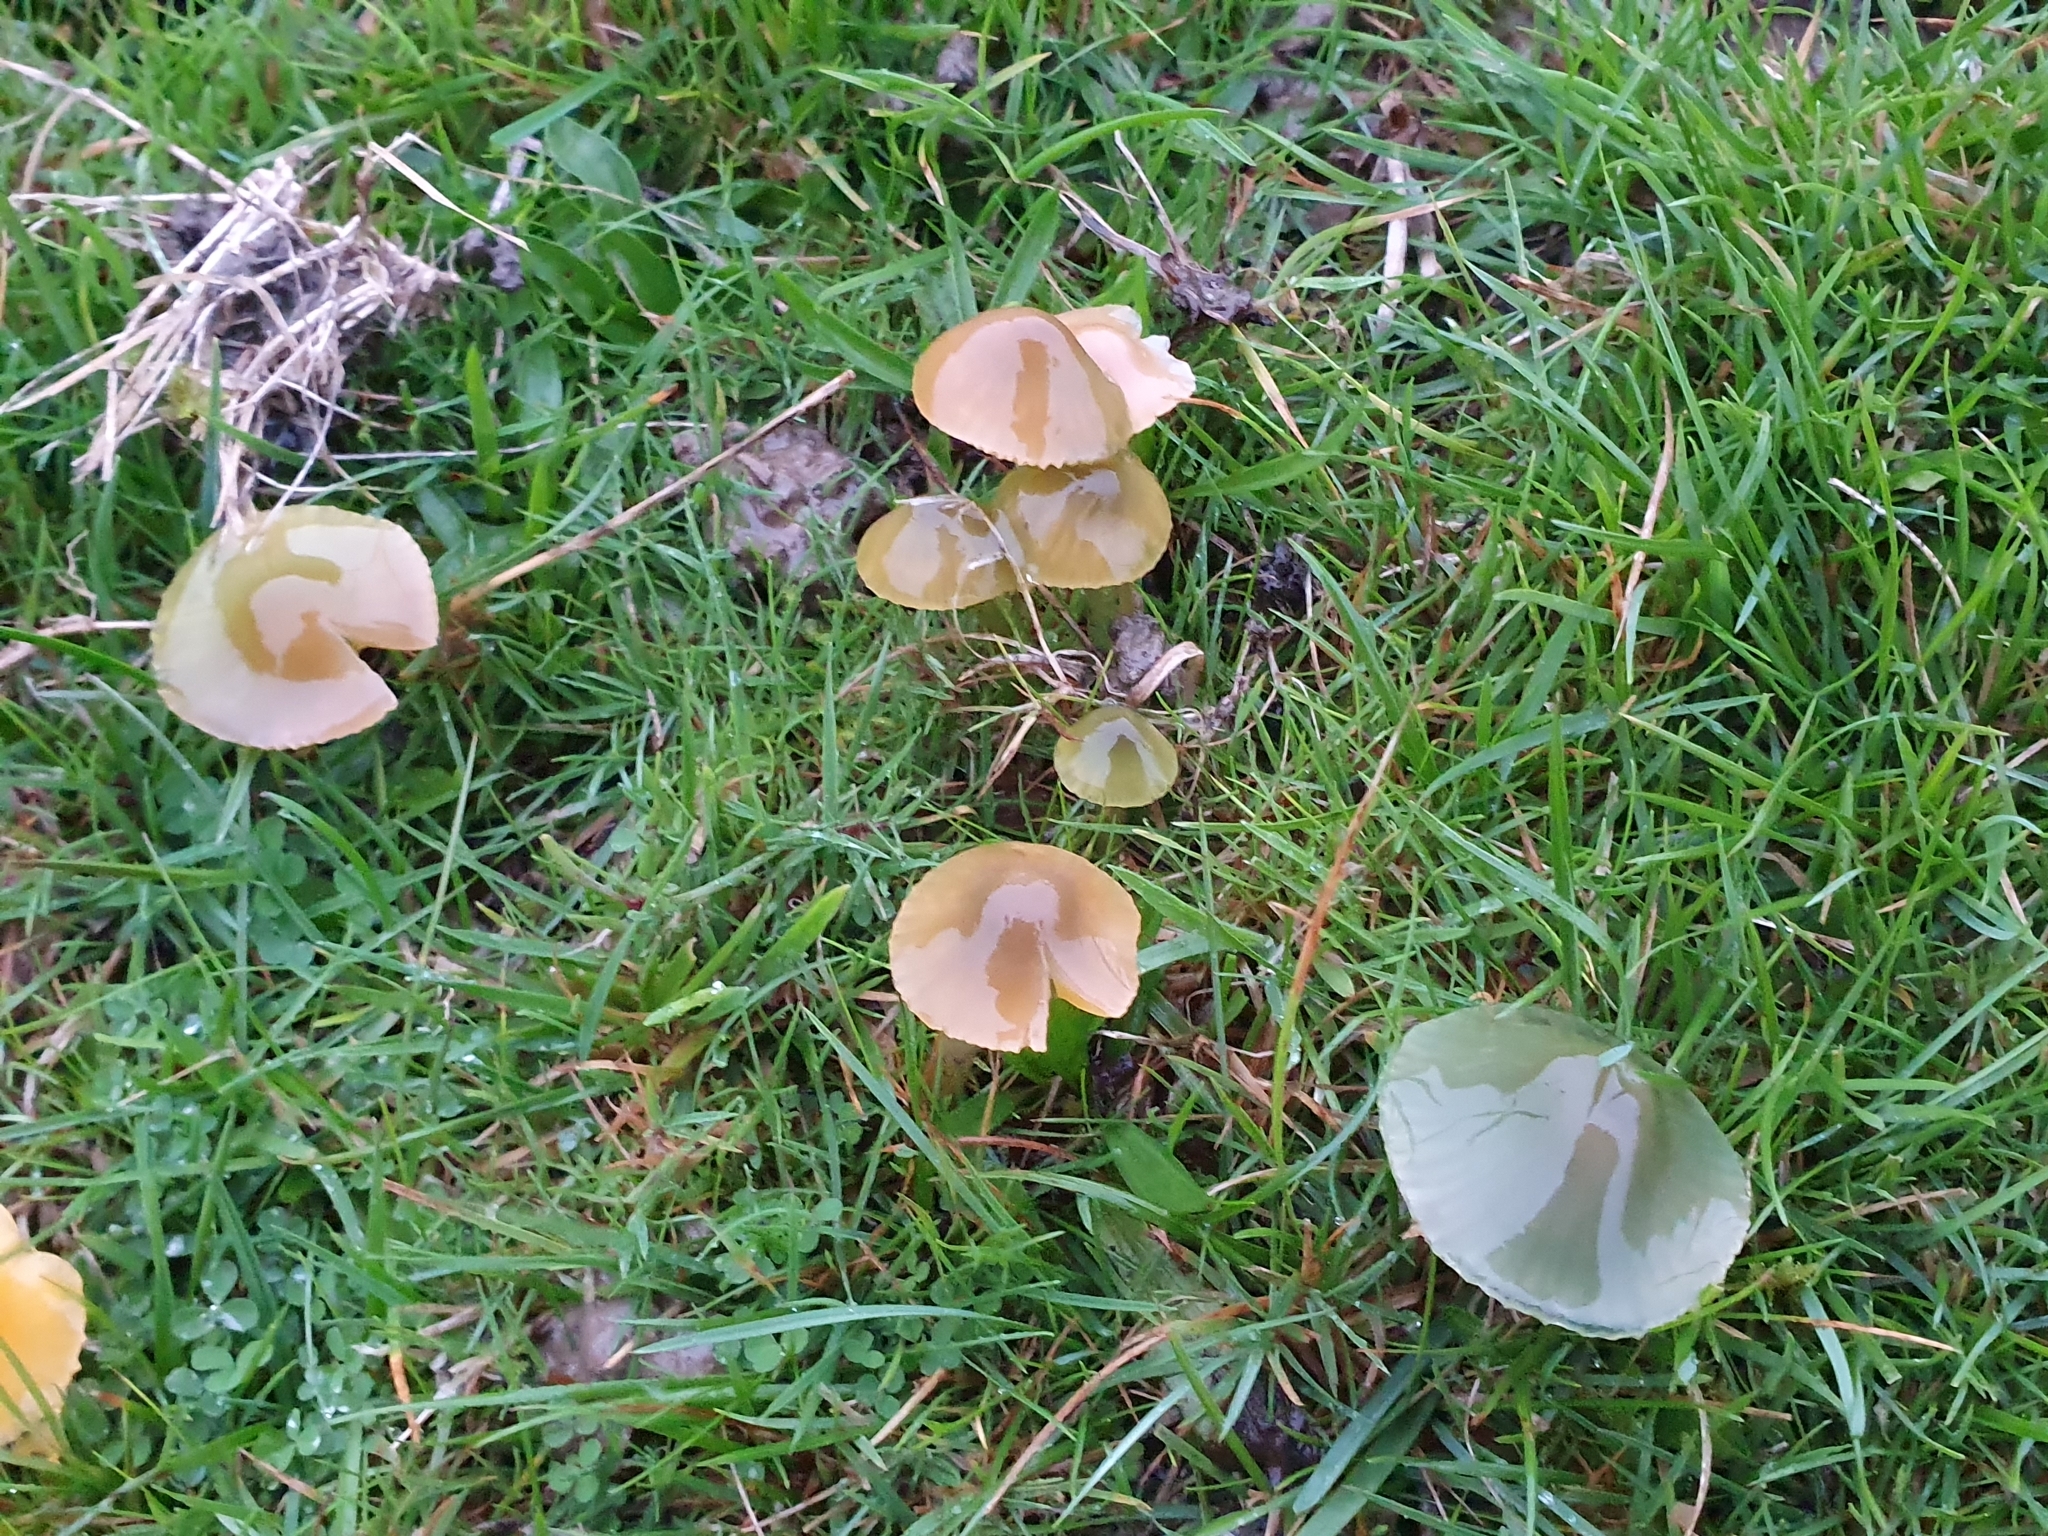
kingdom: Fungi
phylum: Basidiomycota
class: Agaricomycetes
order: Agaricales
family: Hygrophoraceae
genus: Gliophorus
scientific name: Gliophorus psittacinus
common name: Parrot wax-cap
